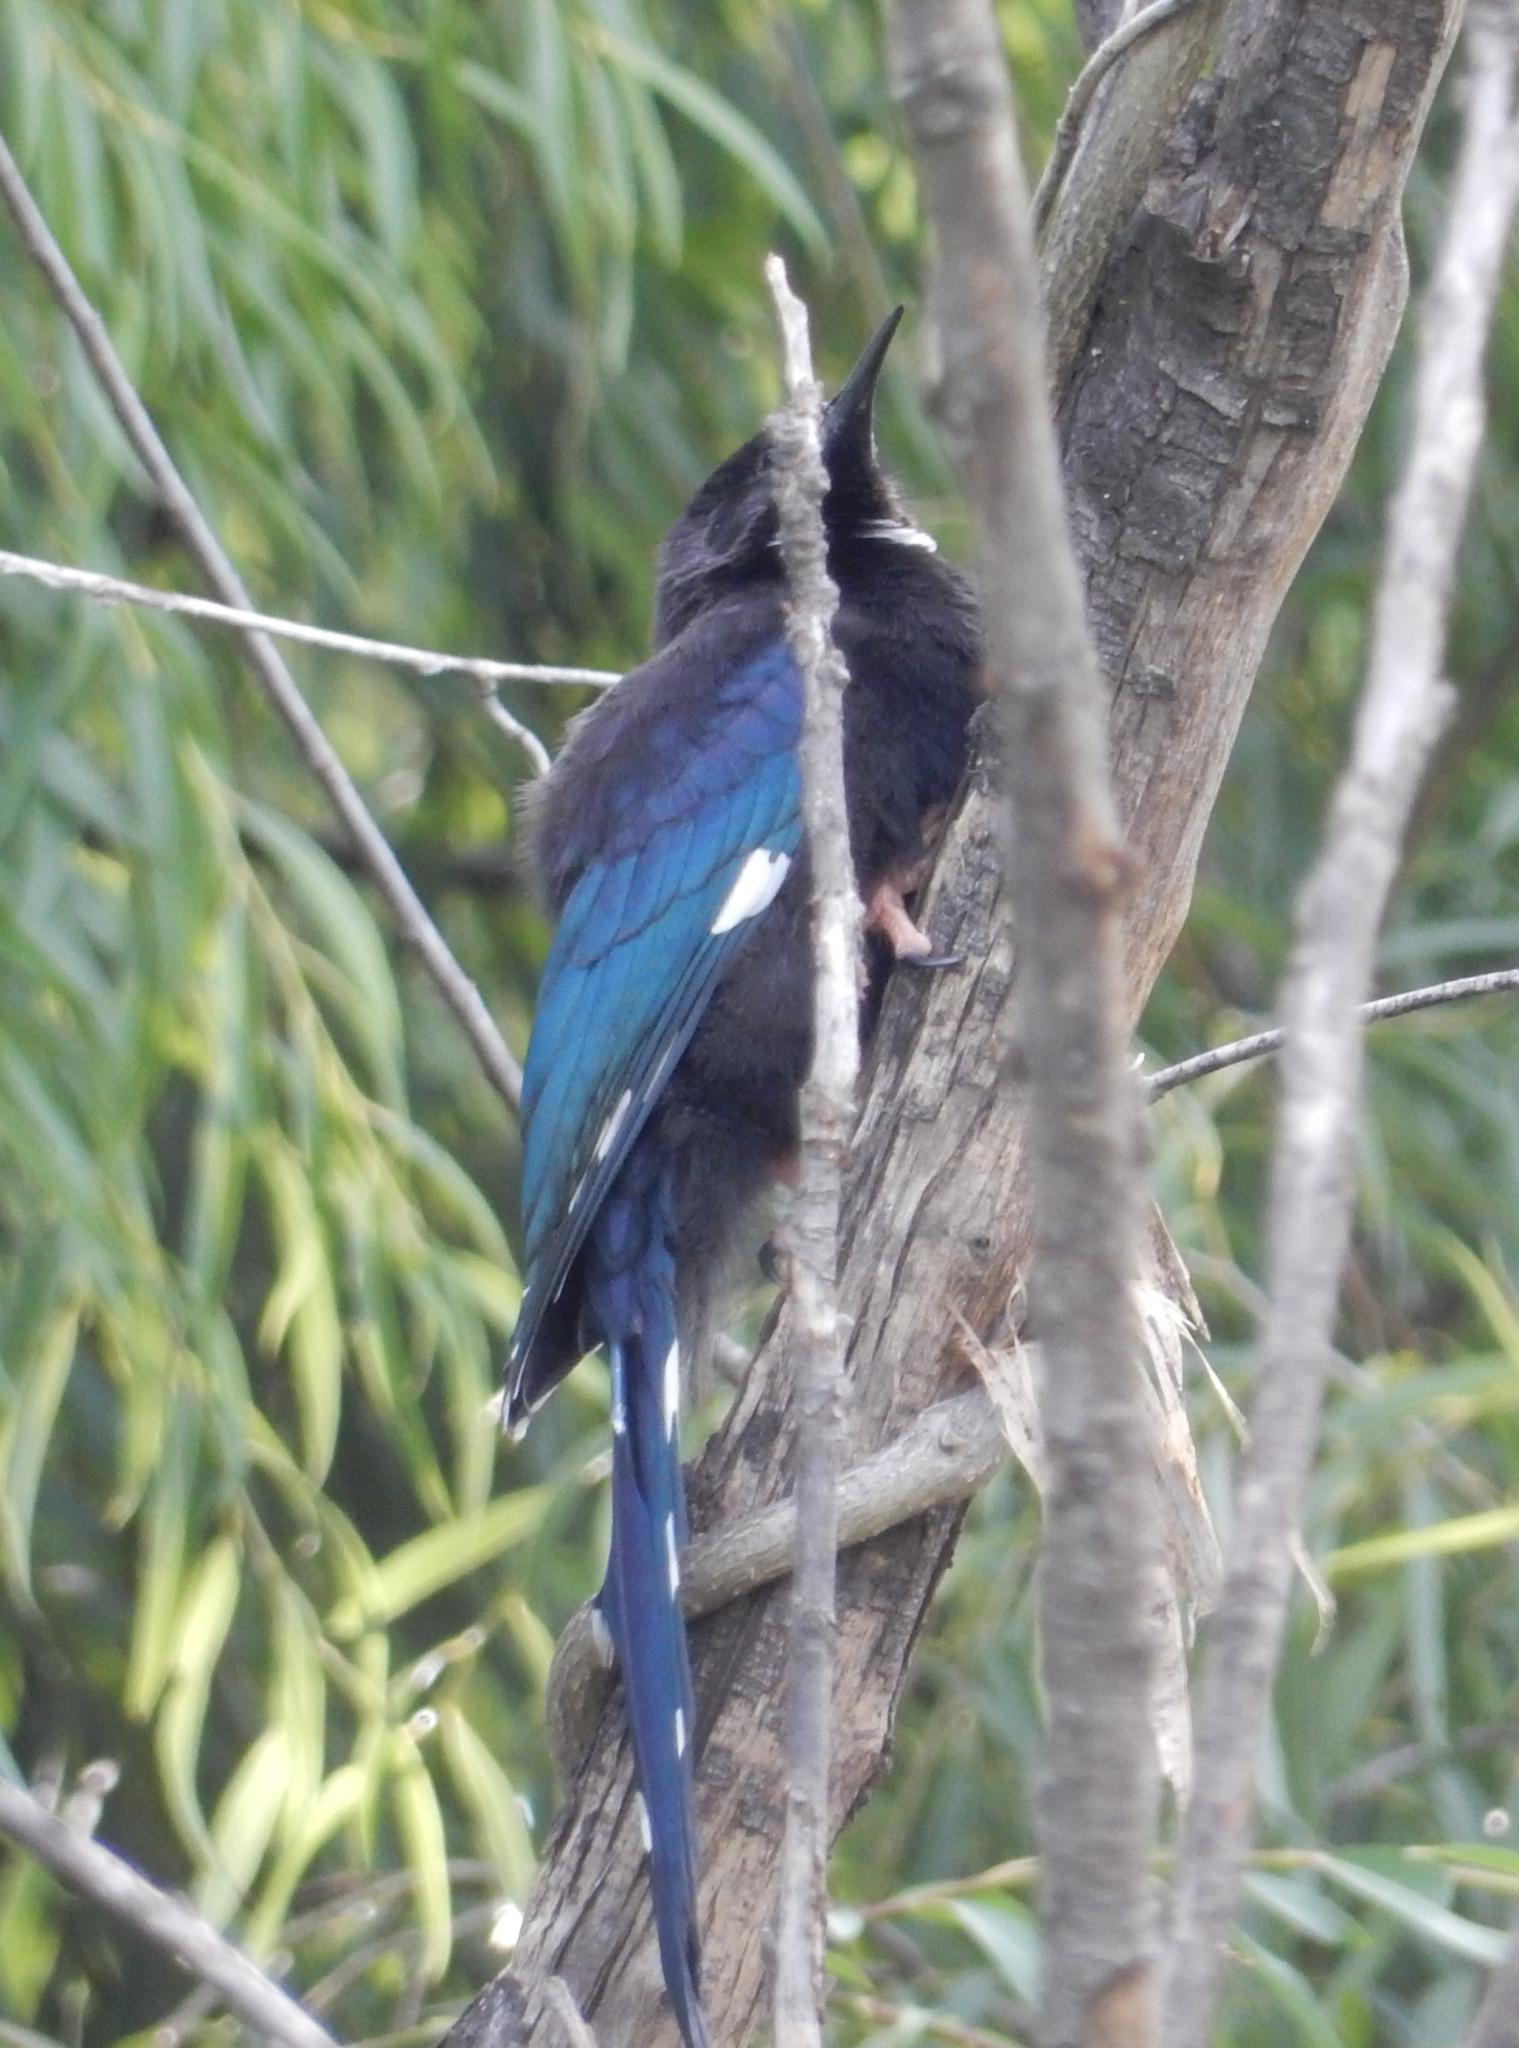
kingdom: Animalia
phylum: Chordata
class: Aves
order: Bucerotiformes
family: Phoeniculidae
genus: Phoeniculus
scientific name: Phoeniculus purpureus
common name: Green woodhoopoe
